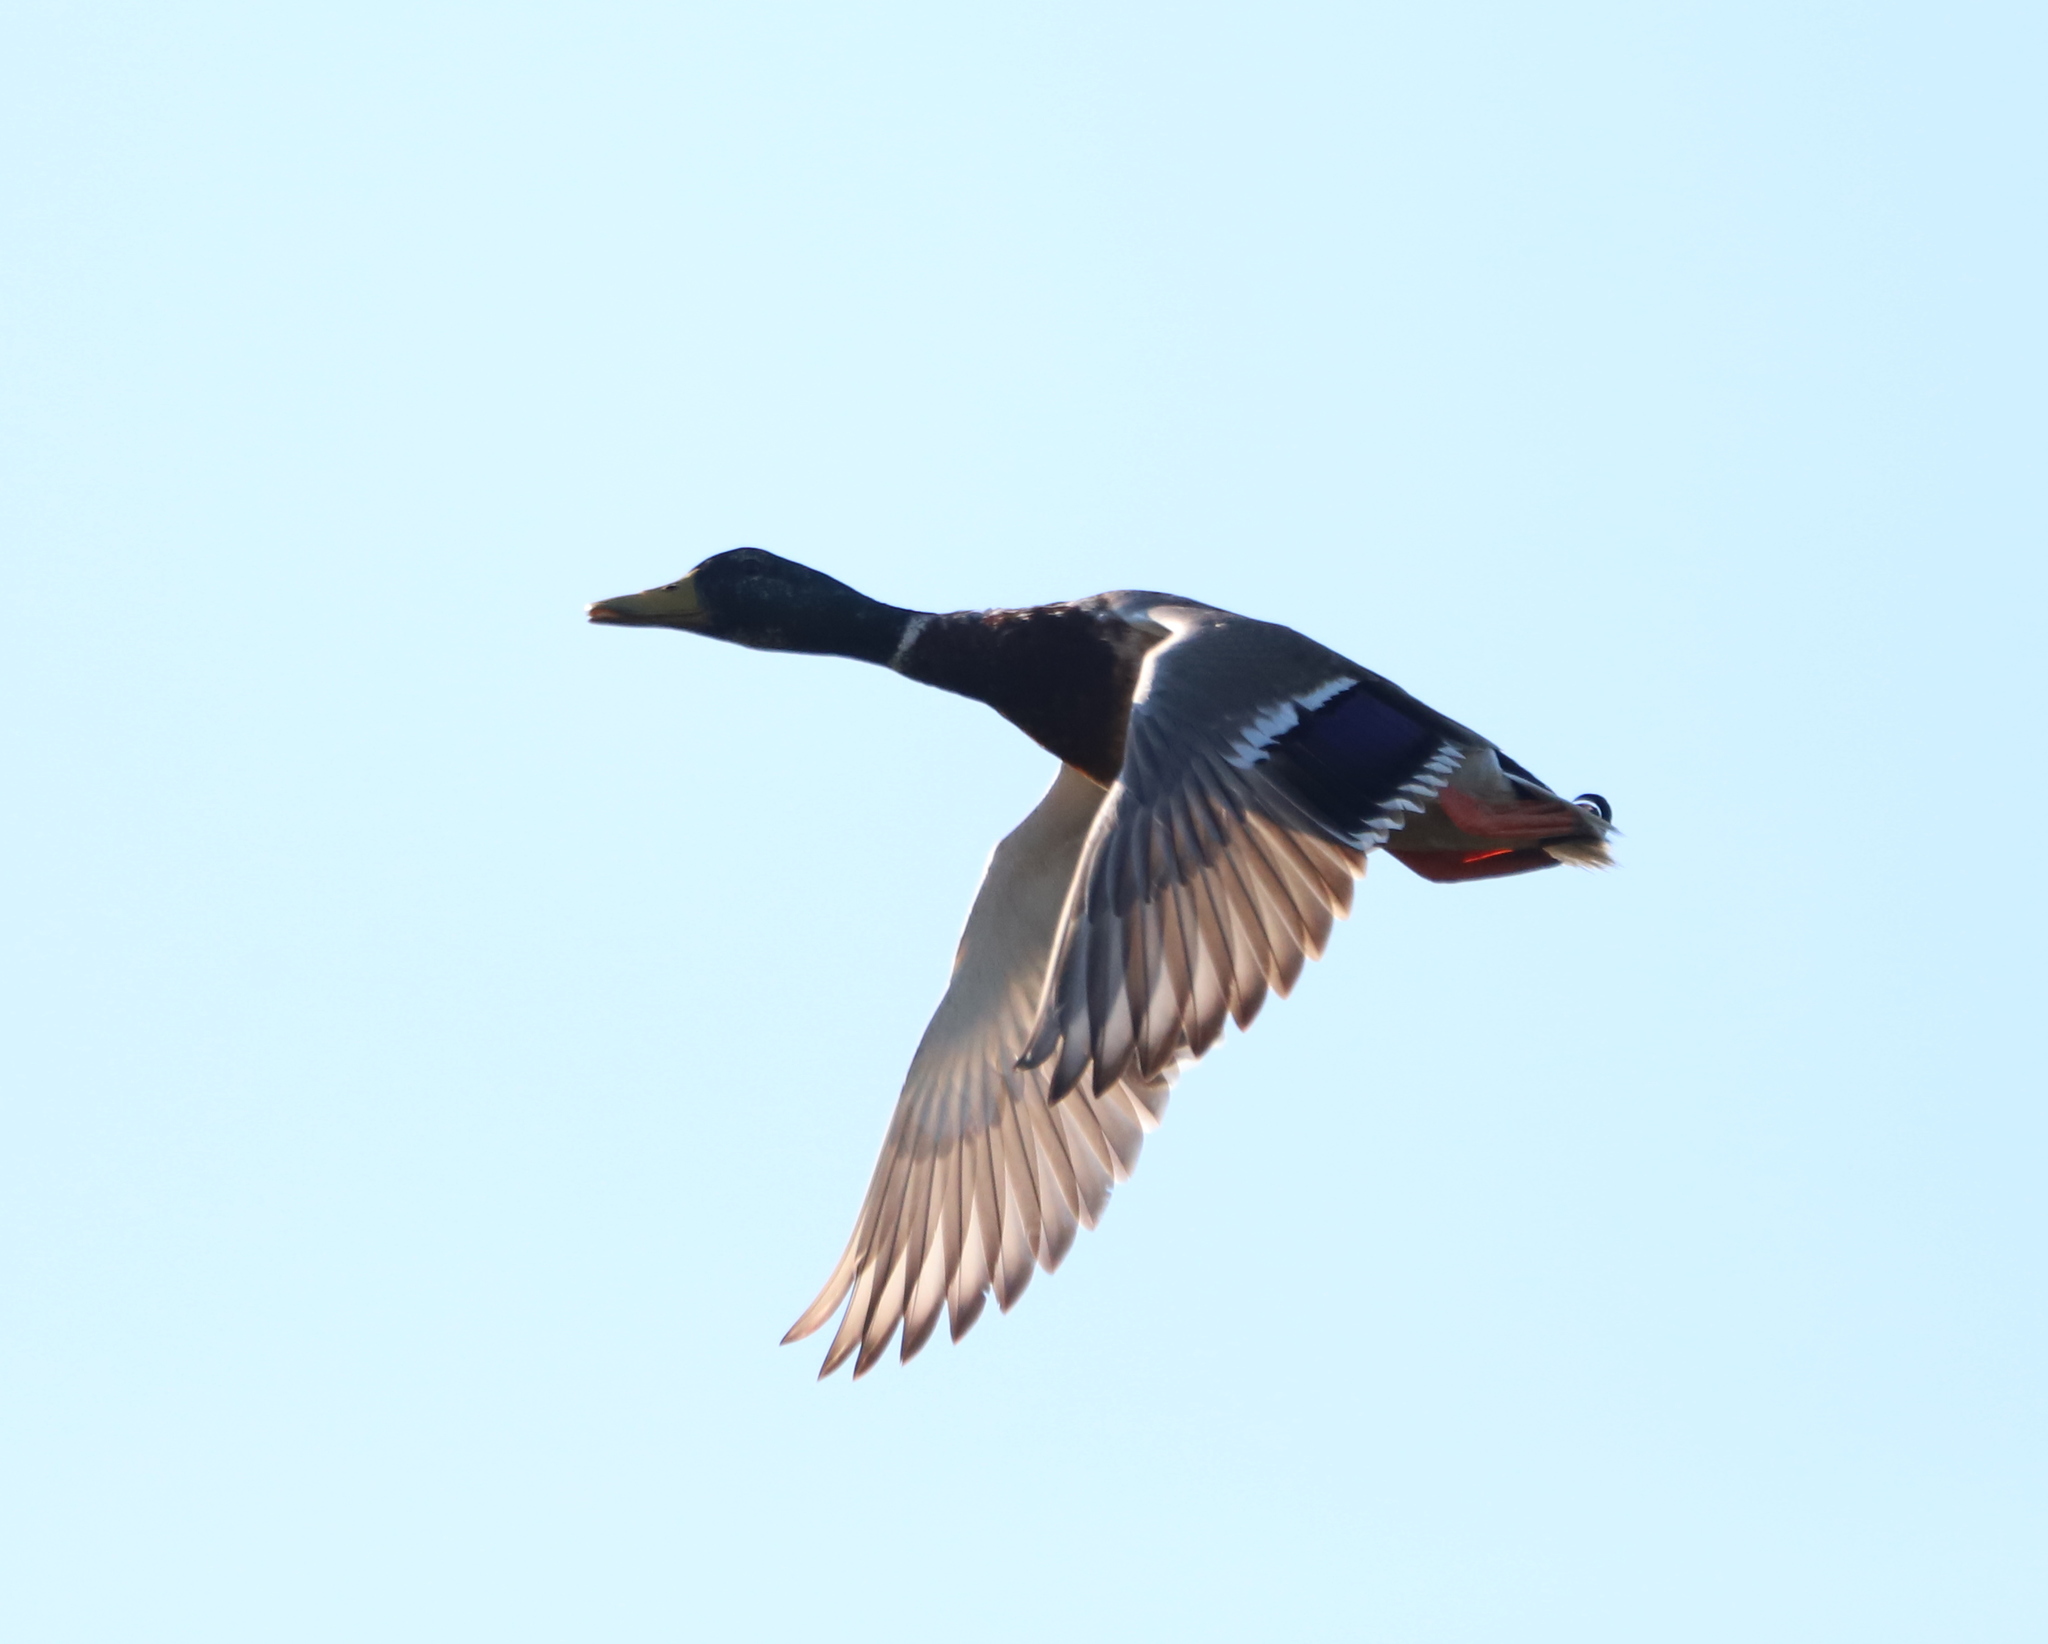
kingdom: Animalia
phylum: Chordata
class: Aves
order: Anseriformes
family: Anatidae
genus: Anas
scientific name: Anas platyrhynchos
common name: Mallard
